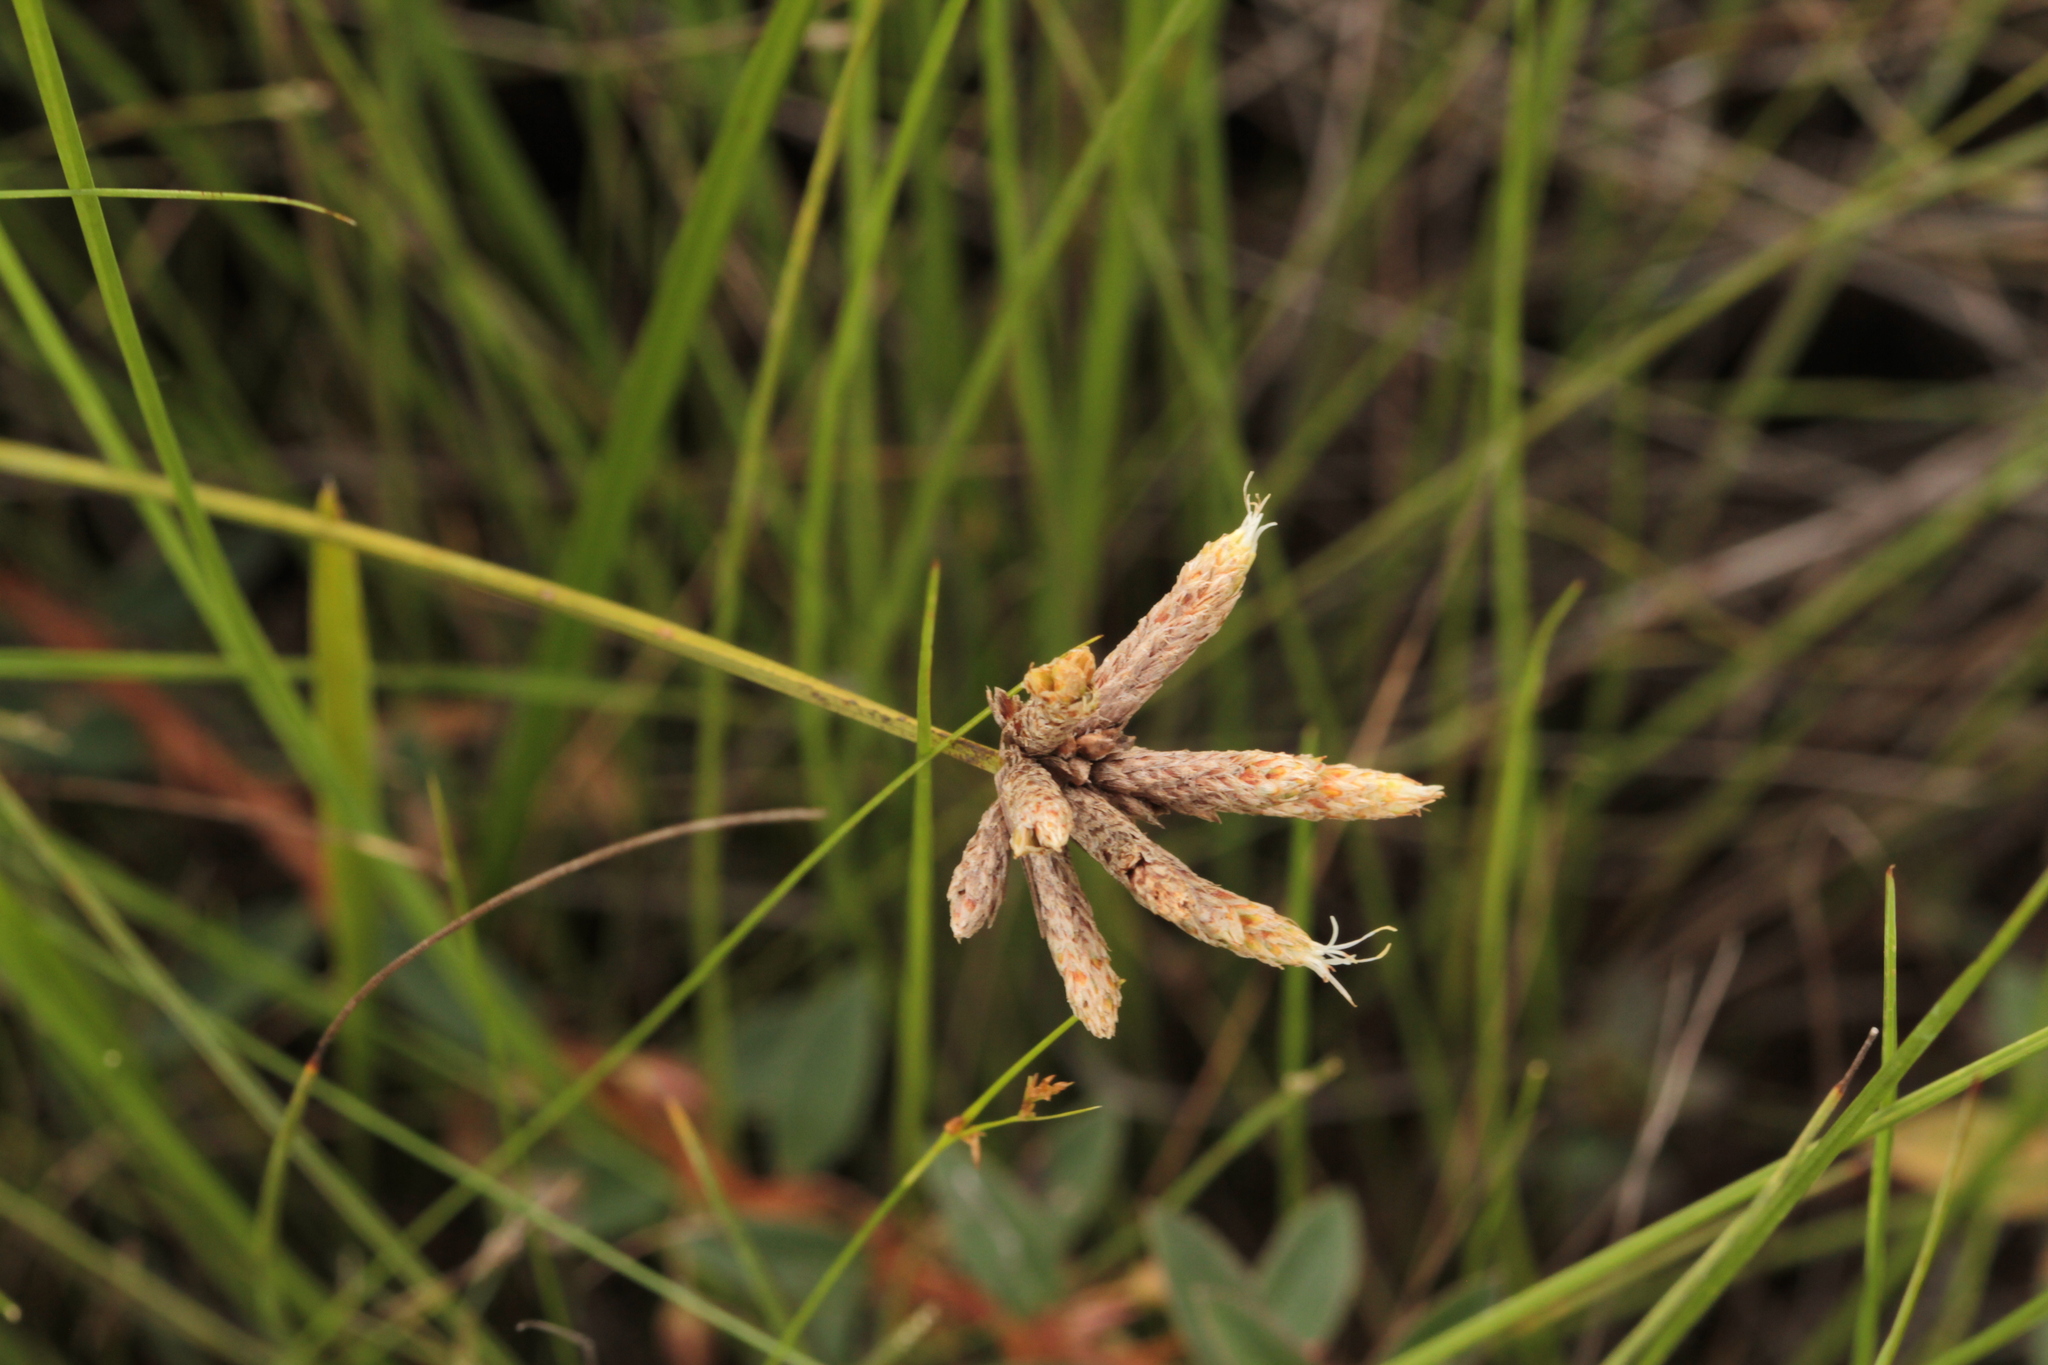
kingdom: Plantae
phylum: Tracheophyta
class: Liliopsida
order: Poales
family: Cyperaceae
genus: Hypolytrum
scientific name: Hypolytrum pulchrum
